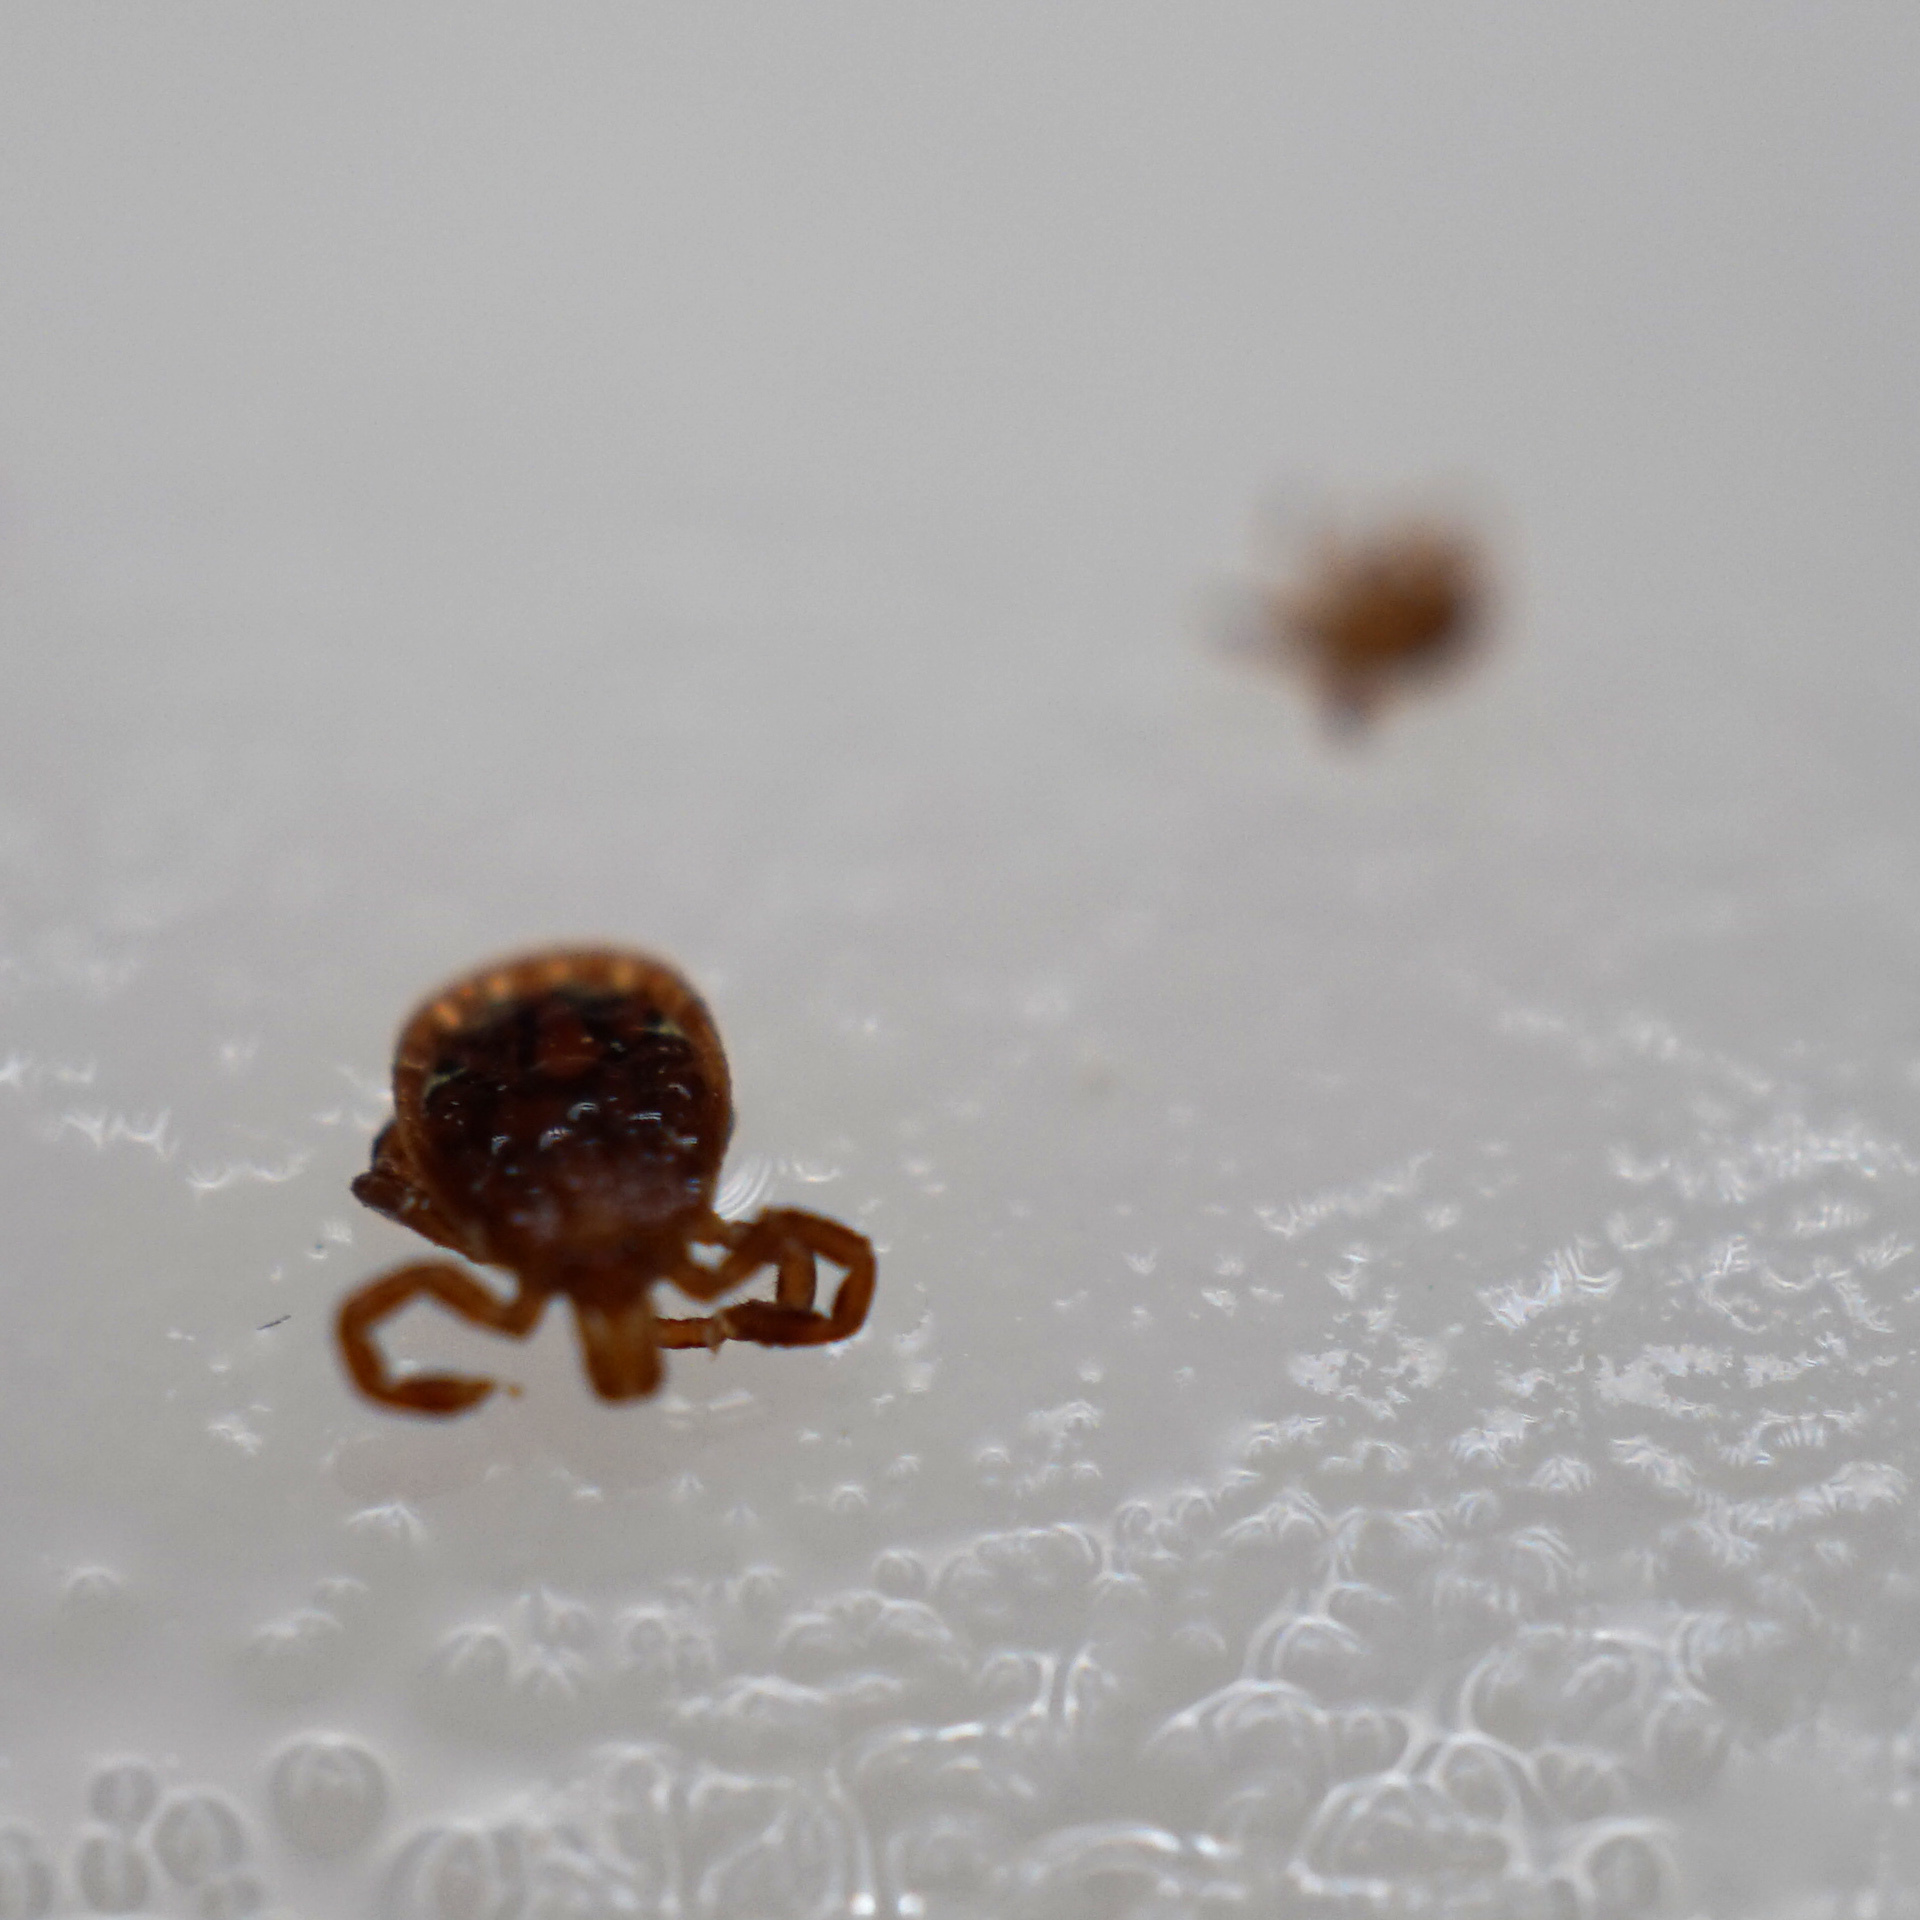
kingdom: Animalia
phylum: Arthropoda
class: Arachnida
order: Ixodida
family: Ixodidae
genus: Amblyomma
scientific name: Amblyomma americanum
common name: Lone star tick
